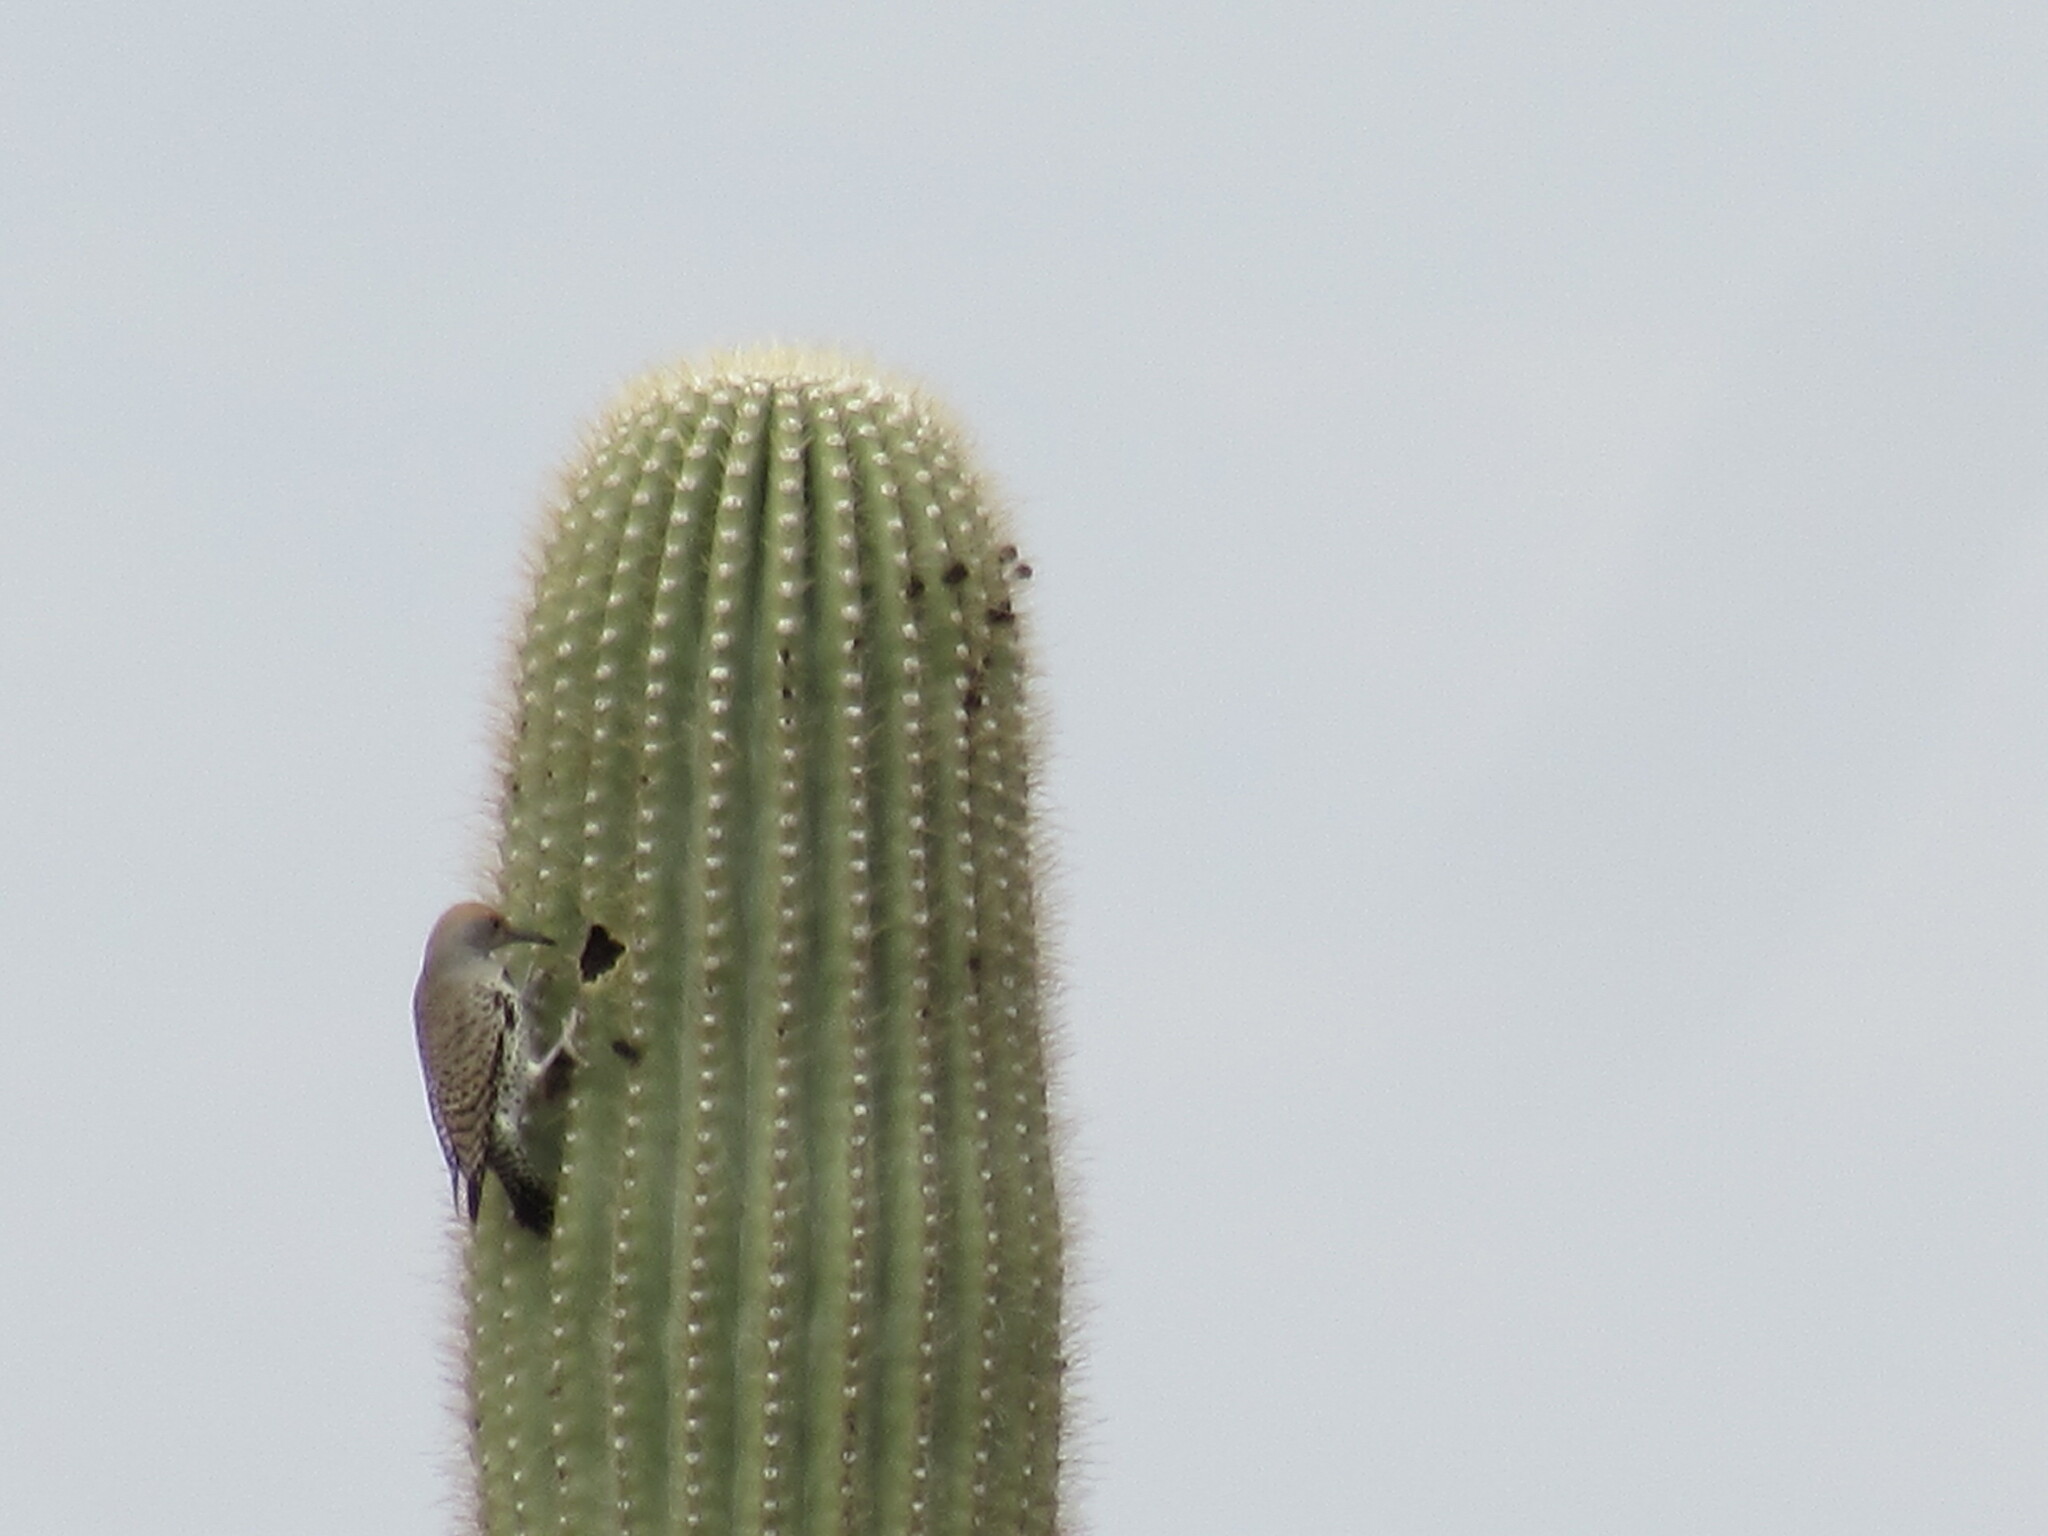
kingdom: Animalia
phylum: Chordata
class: Aves
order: Piciformes
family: Picidae
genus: Colaptes
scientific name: Colaptes chrysoides
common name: Gilded flicker
